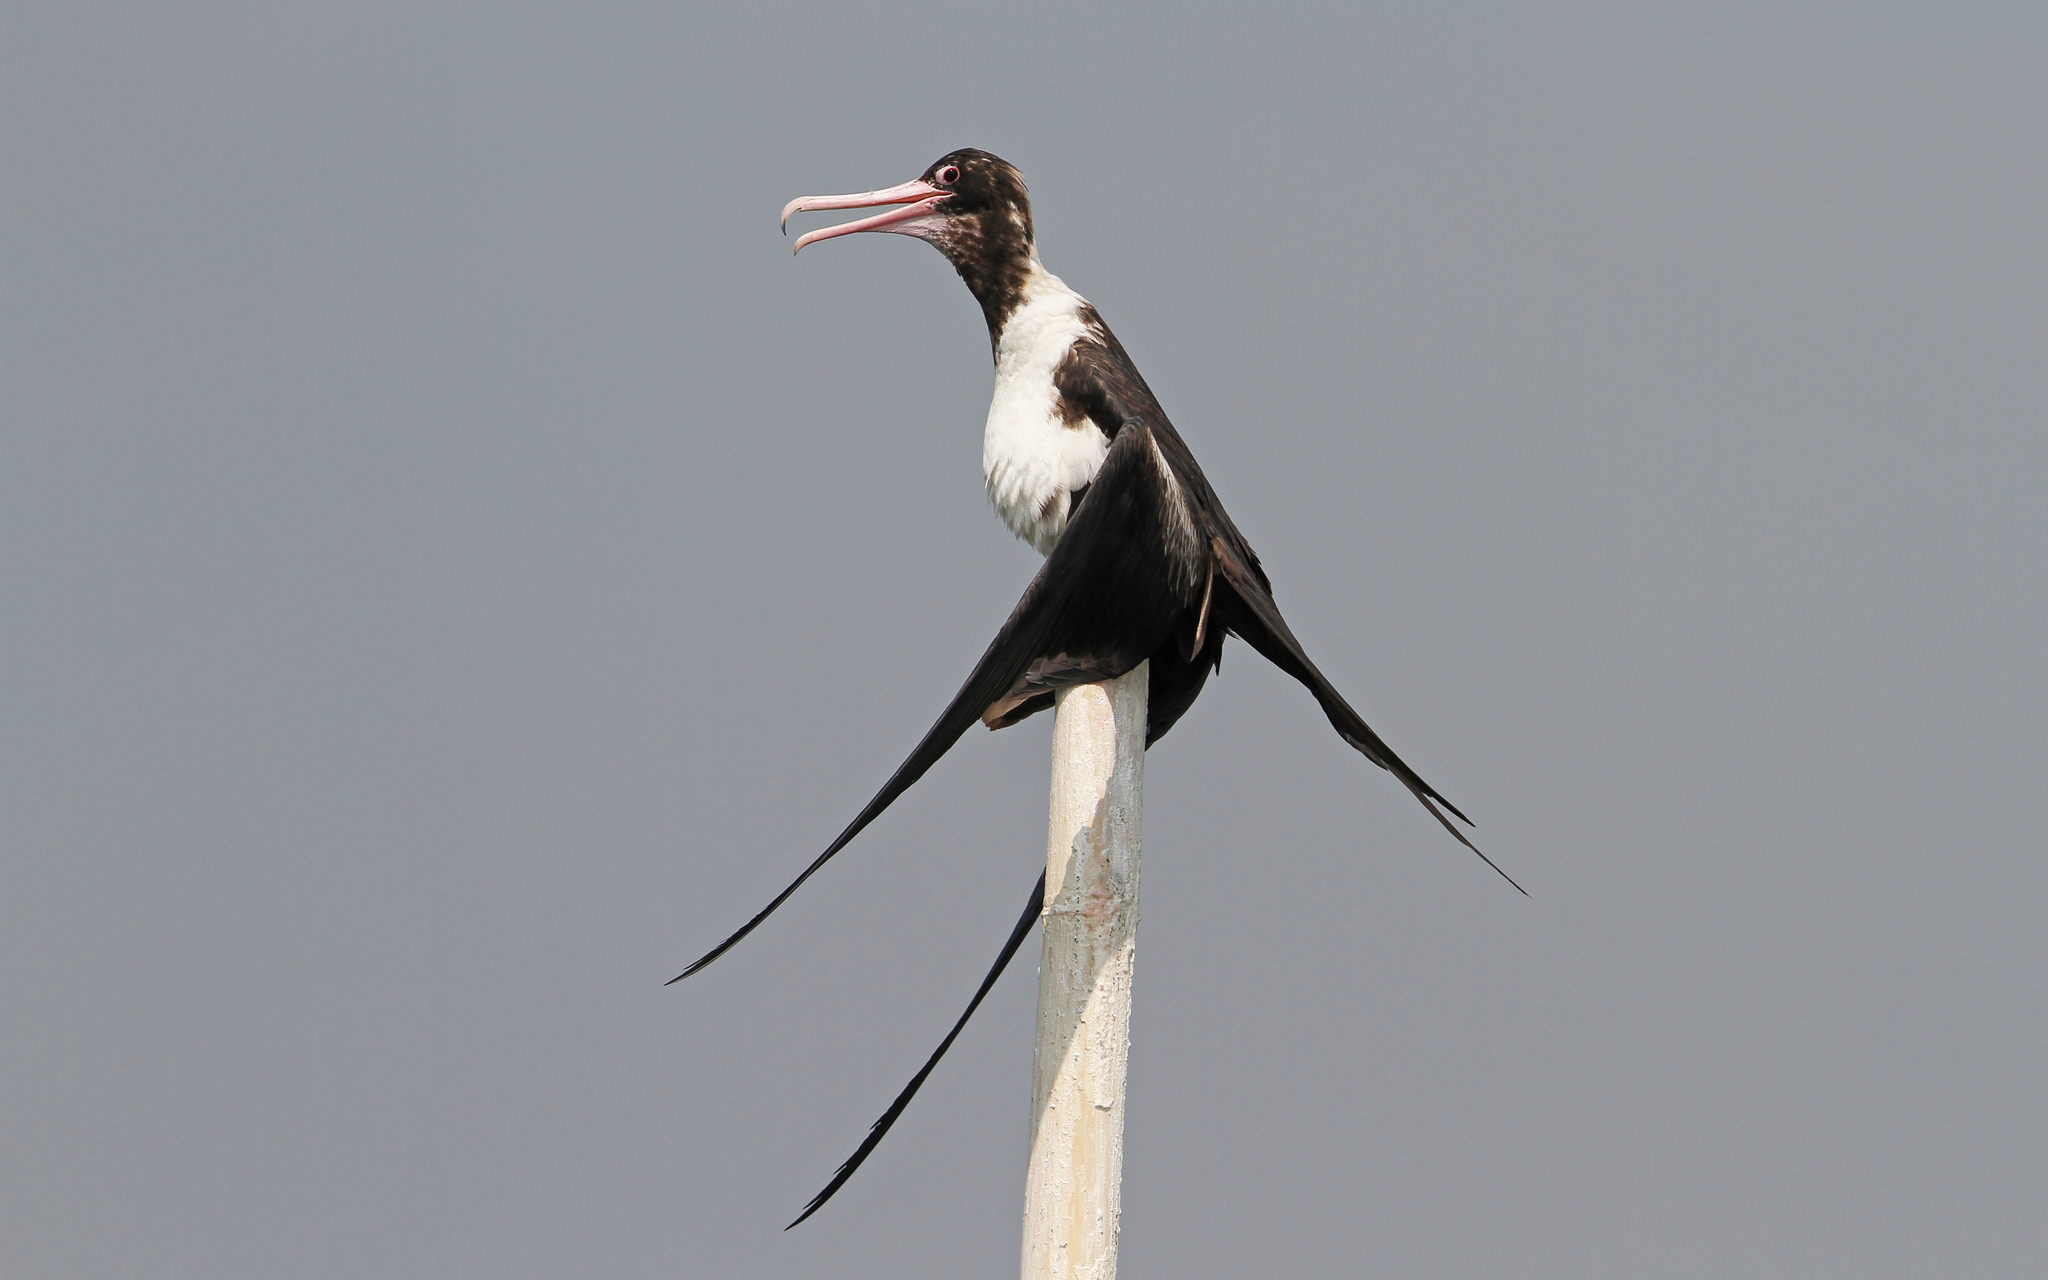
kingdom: Animalia
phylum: Chordata
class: Aves
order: Suliformes
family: Fregatidae
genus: Fregata
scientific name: Fregata andrewsi
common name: Christmas frigatebird
